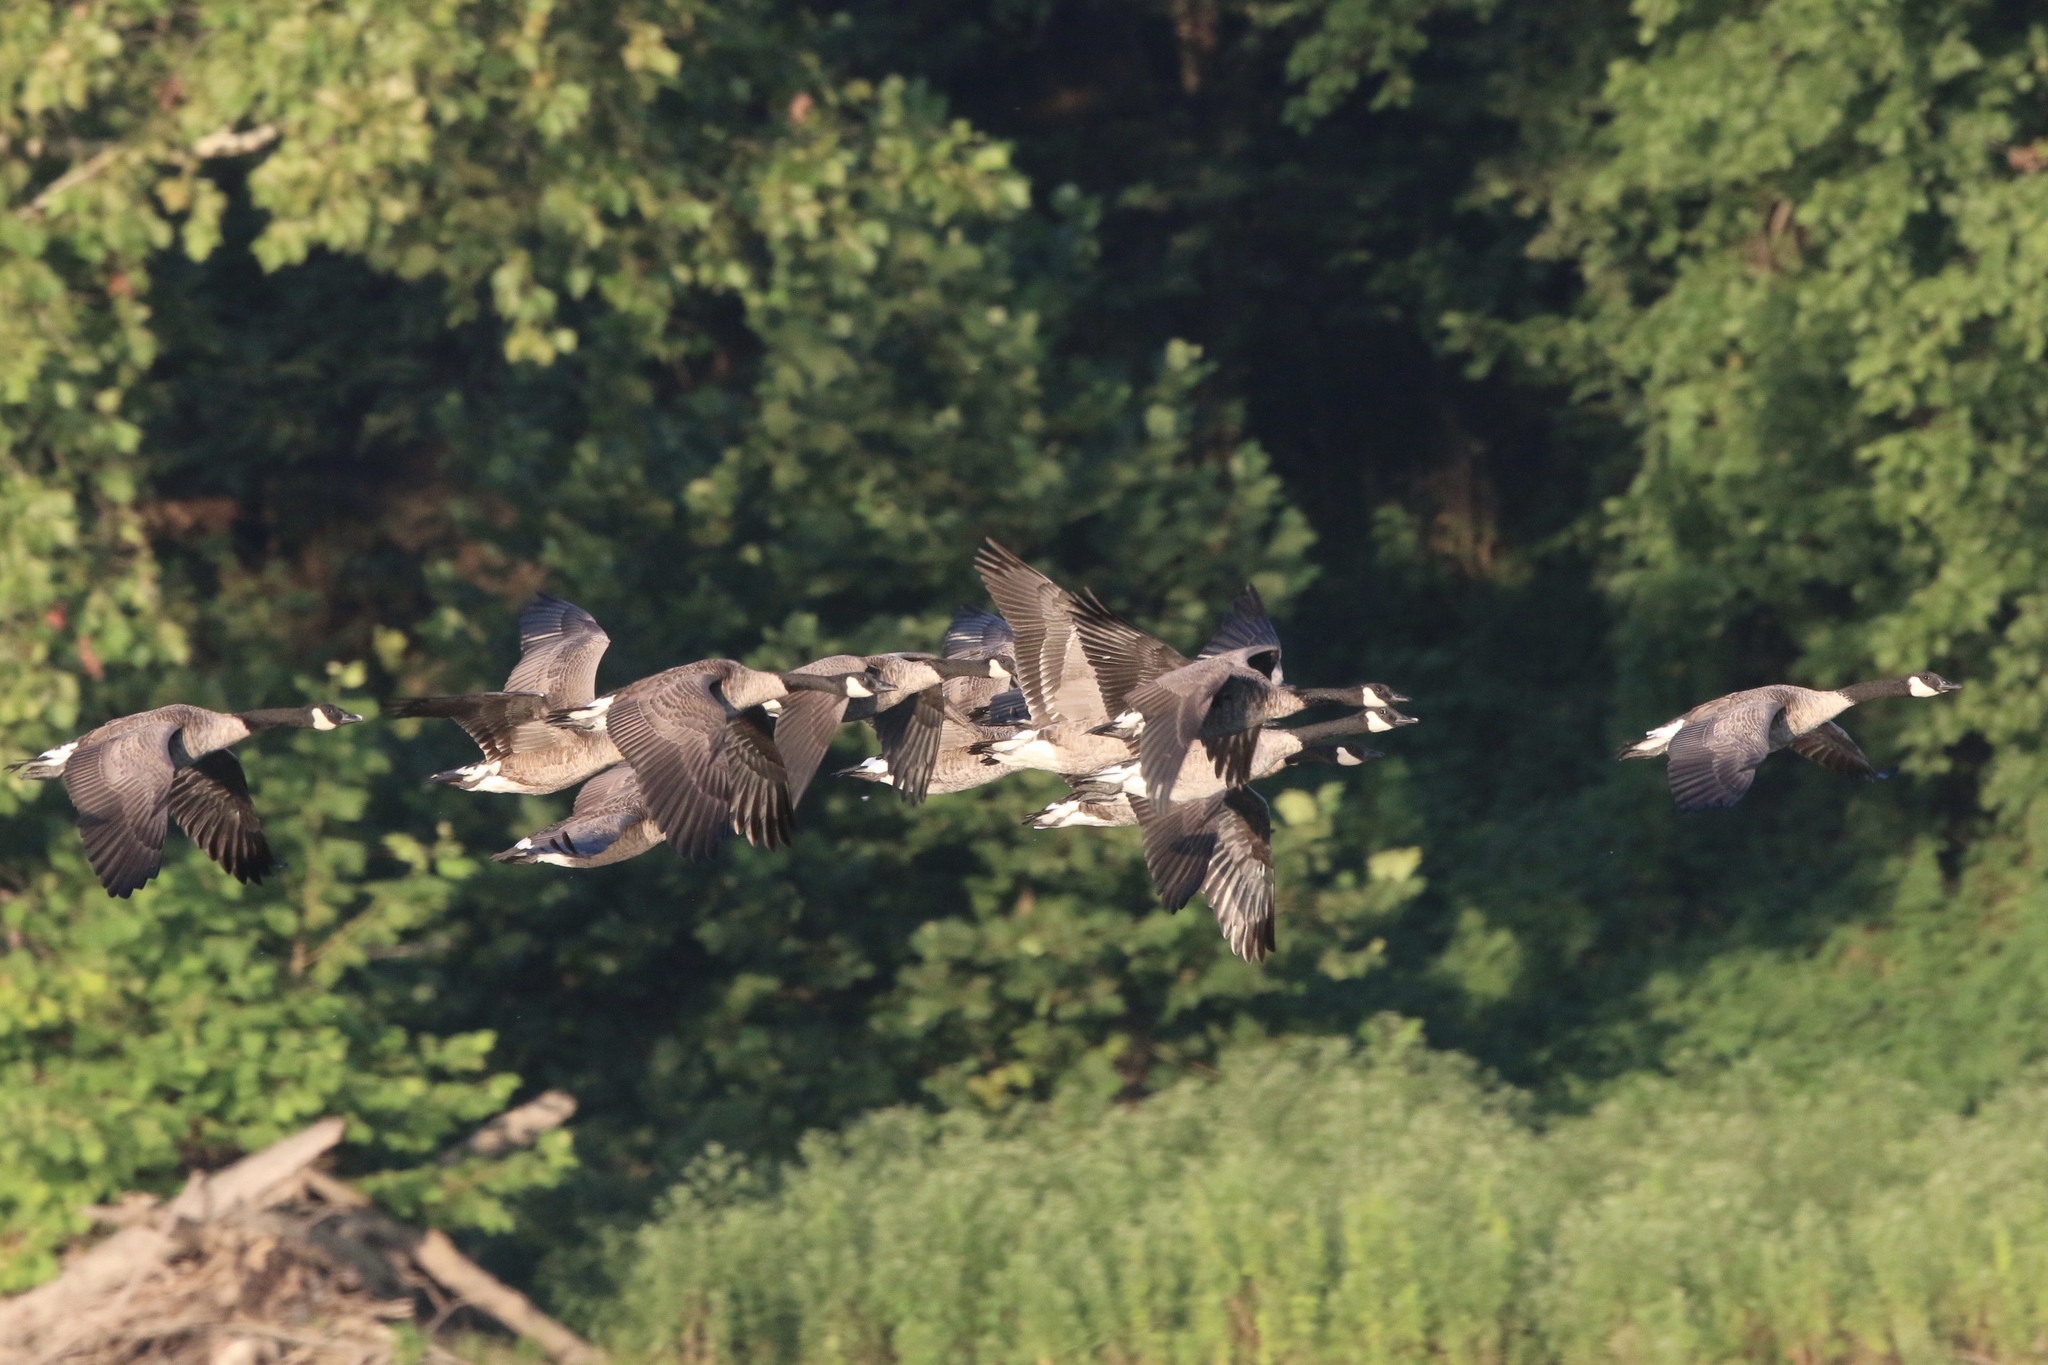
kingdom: Animalia
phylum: Chordata
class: Aves
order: Anseriformes
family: Anatidae
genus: Branta
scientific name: Branta canadensis
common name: Canada goose
